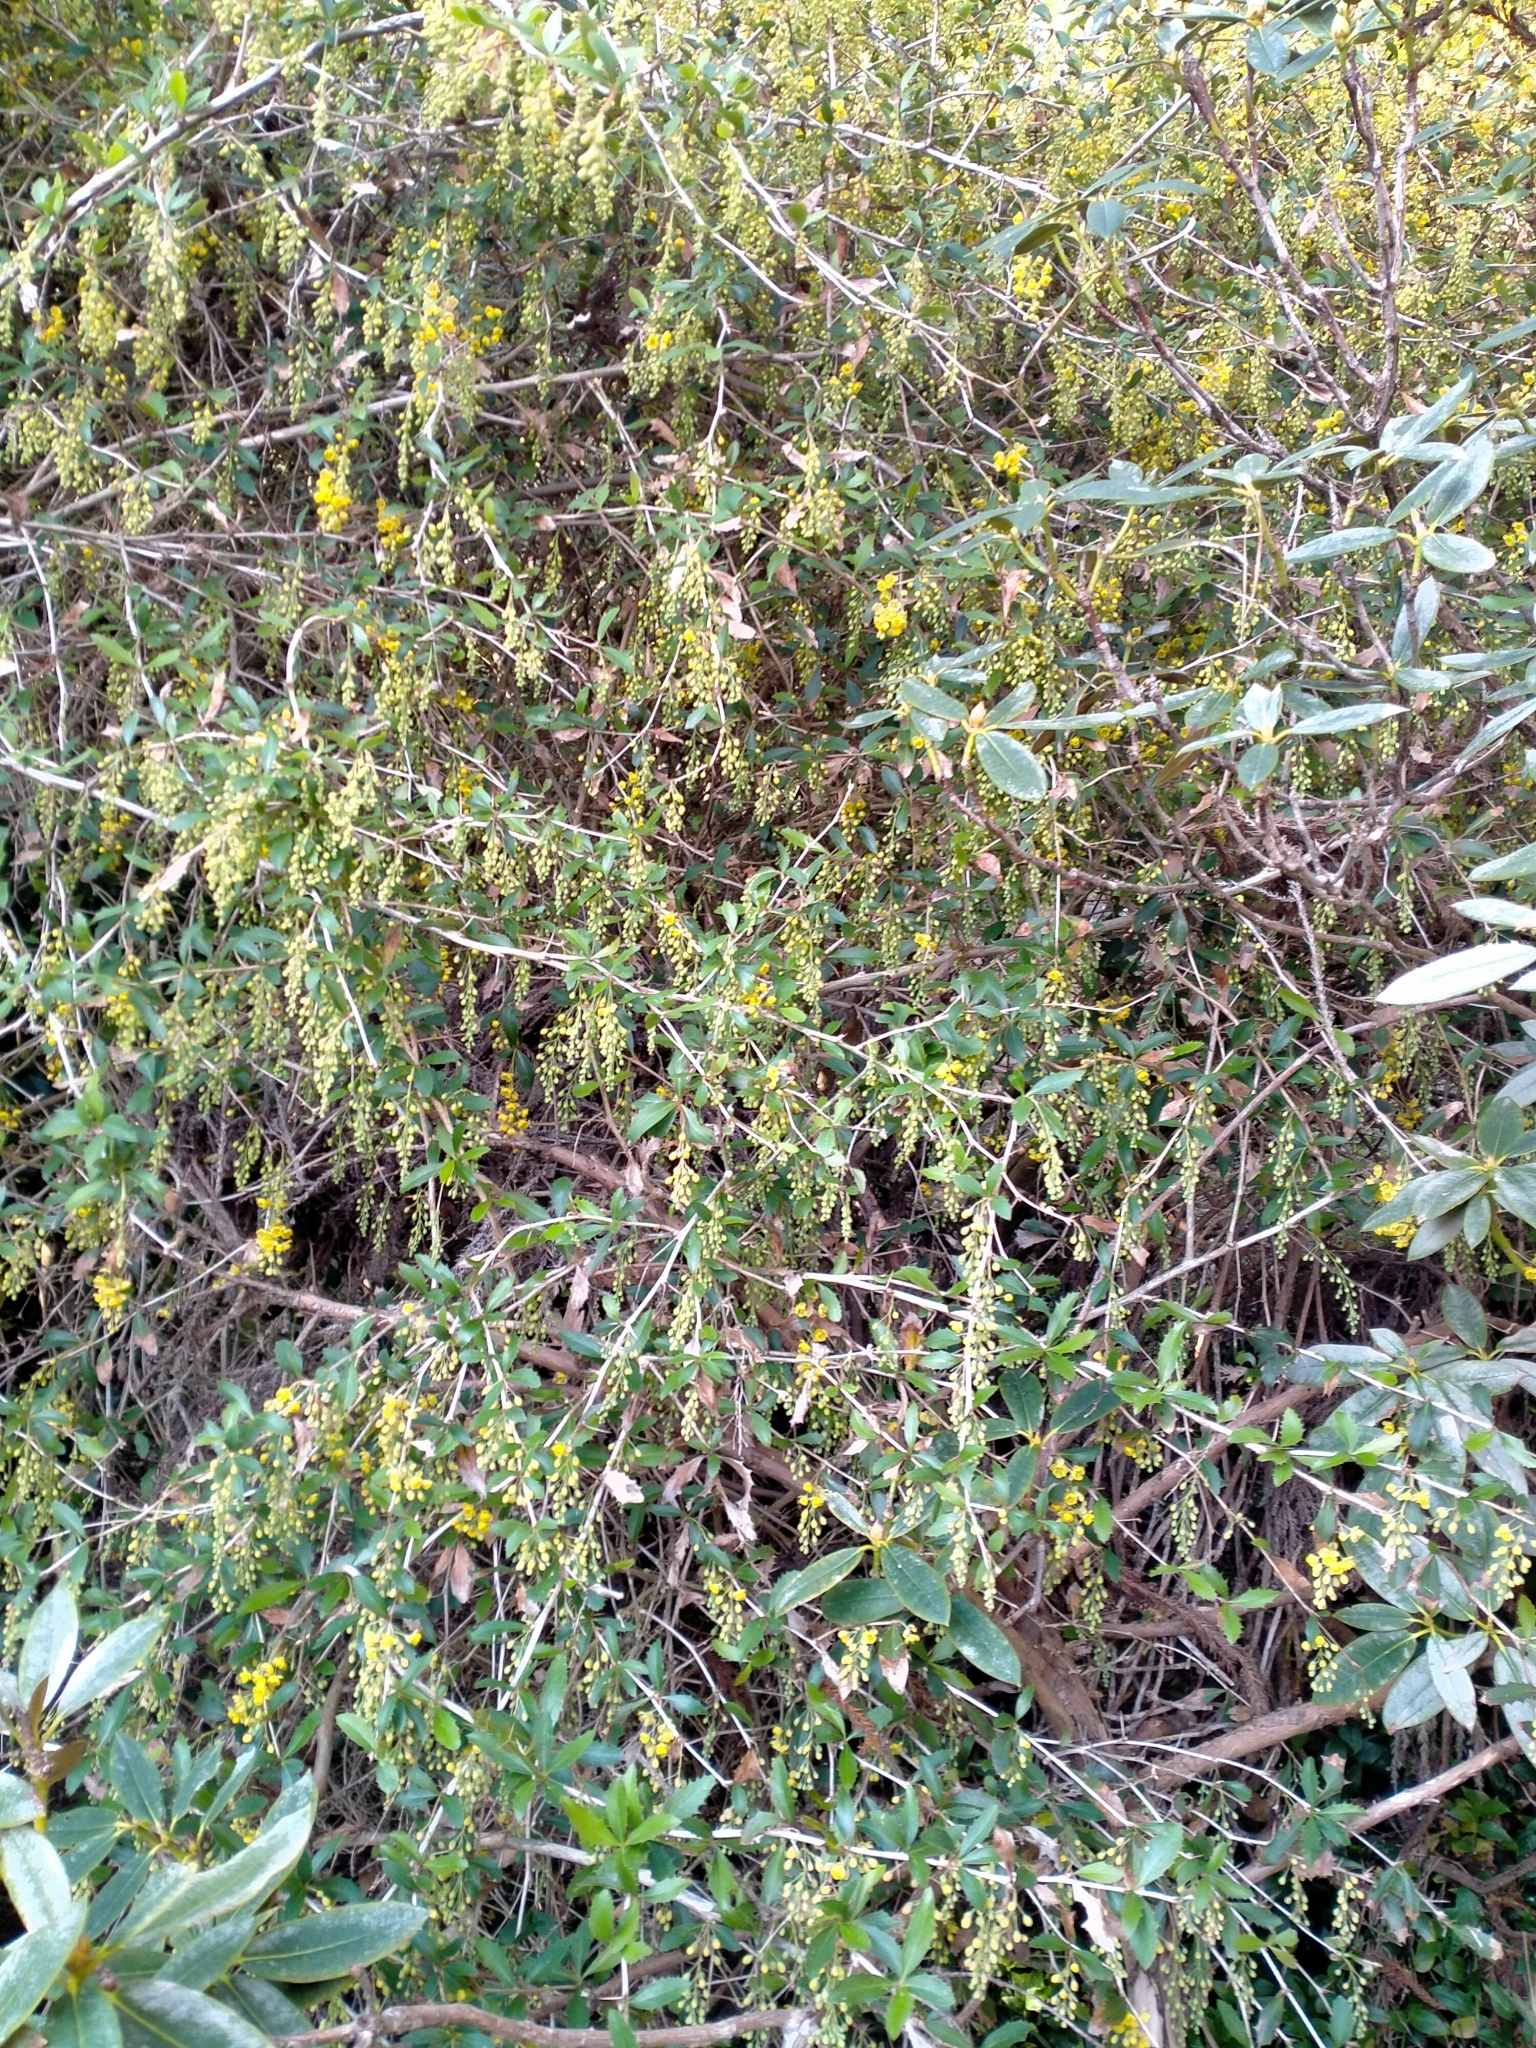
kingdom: Plantae
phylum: Tracheophyta
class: Magnoliopsida
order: Ranunculales
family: Berberidaceae
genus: Berberis
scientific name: Berberis glaucocarpa
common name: Great barberry
